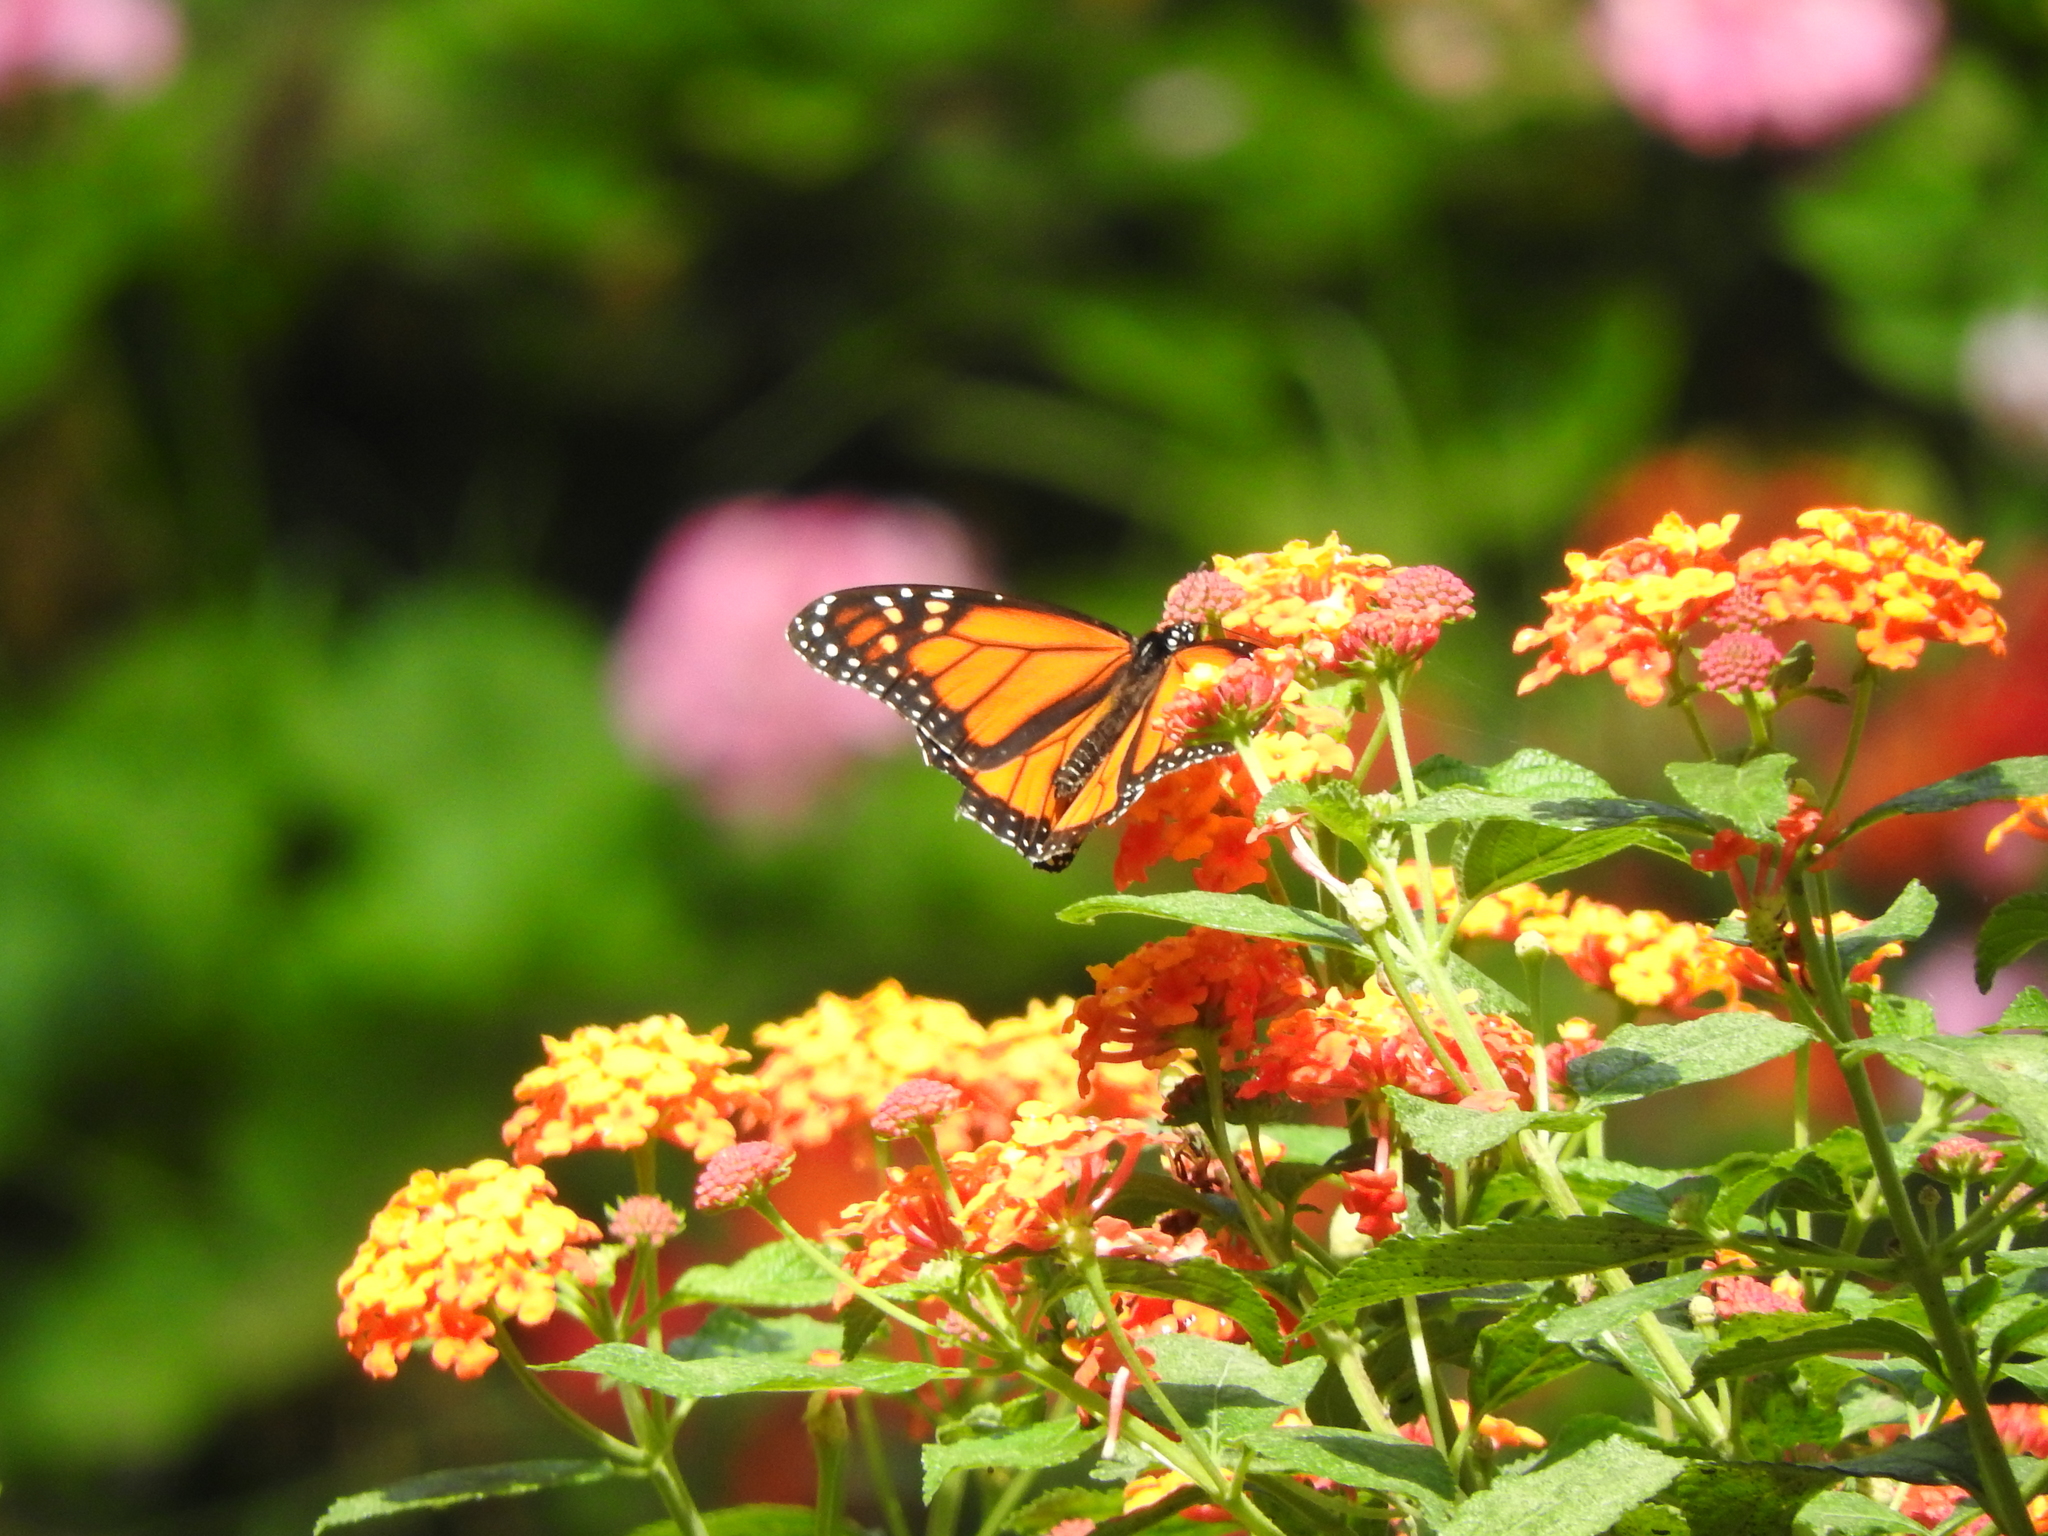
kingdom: Animalia
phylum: Arthropoda
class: Insecta
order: Lepidoptera
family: Nymphalidae
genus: Danaus
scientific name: Danaus plexippus
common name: Monarch
